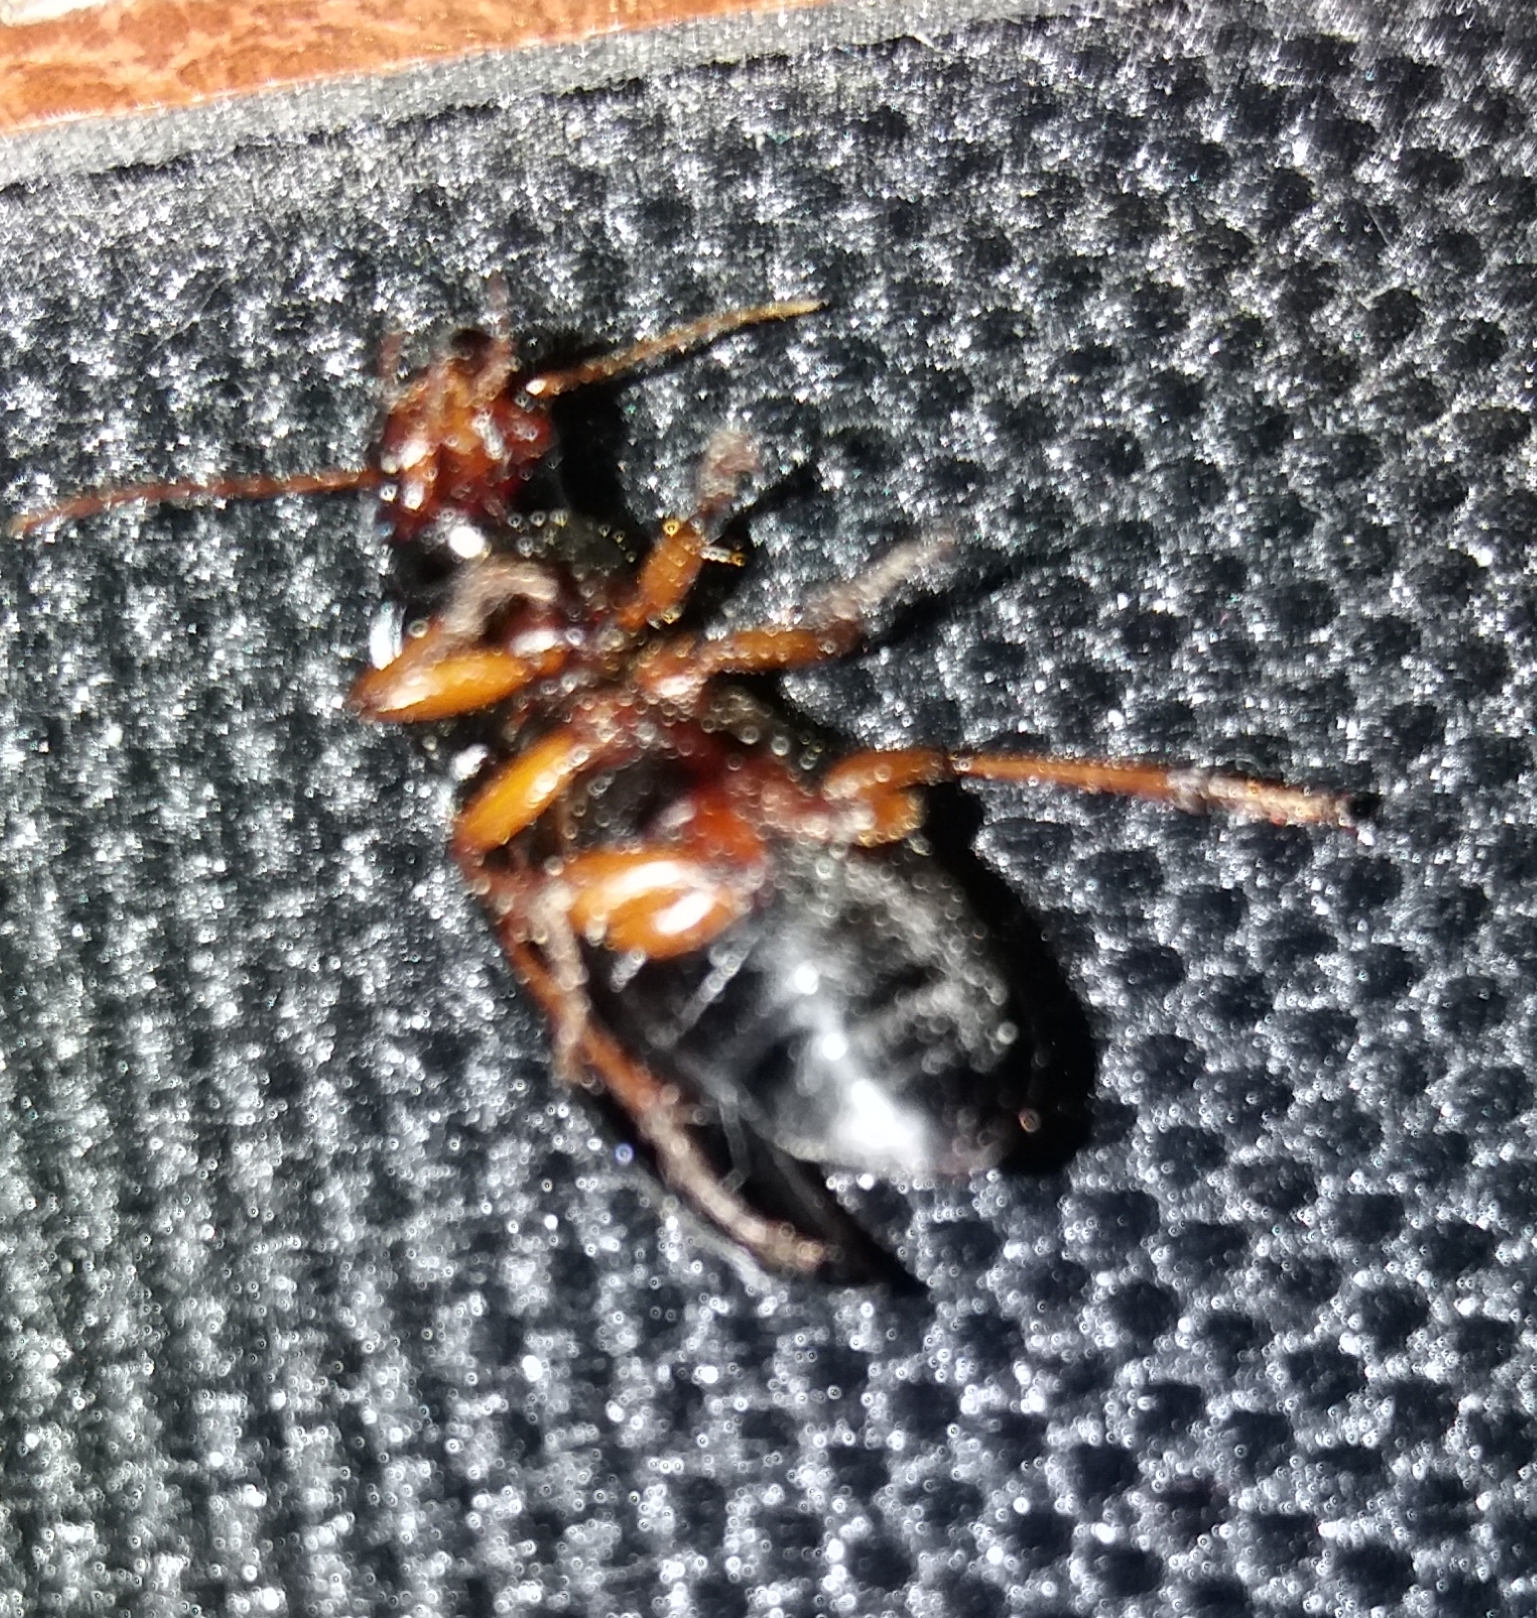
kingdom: Animalia
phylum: Arthropoda
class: Insecta
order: Coleoptera
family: Carabidae
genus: Harpalus
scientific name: Harpalus rufipes
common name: Strawberry harp ground beetle
